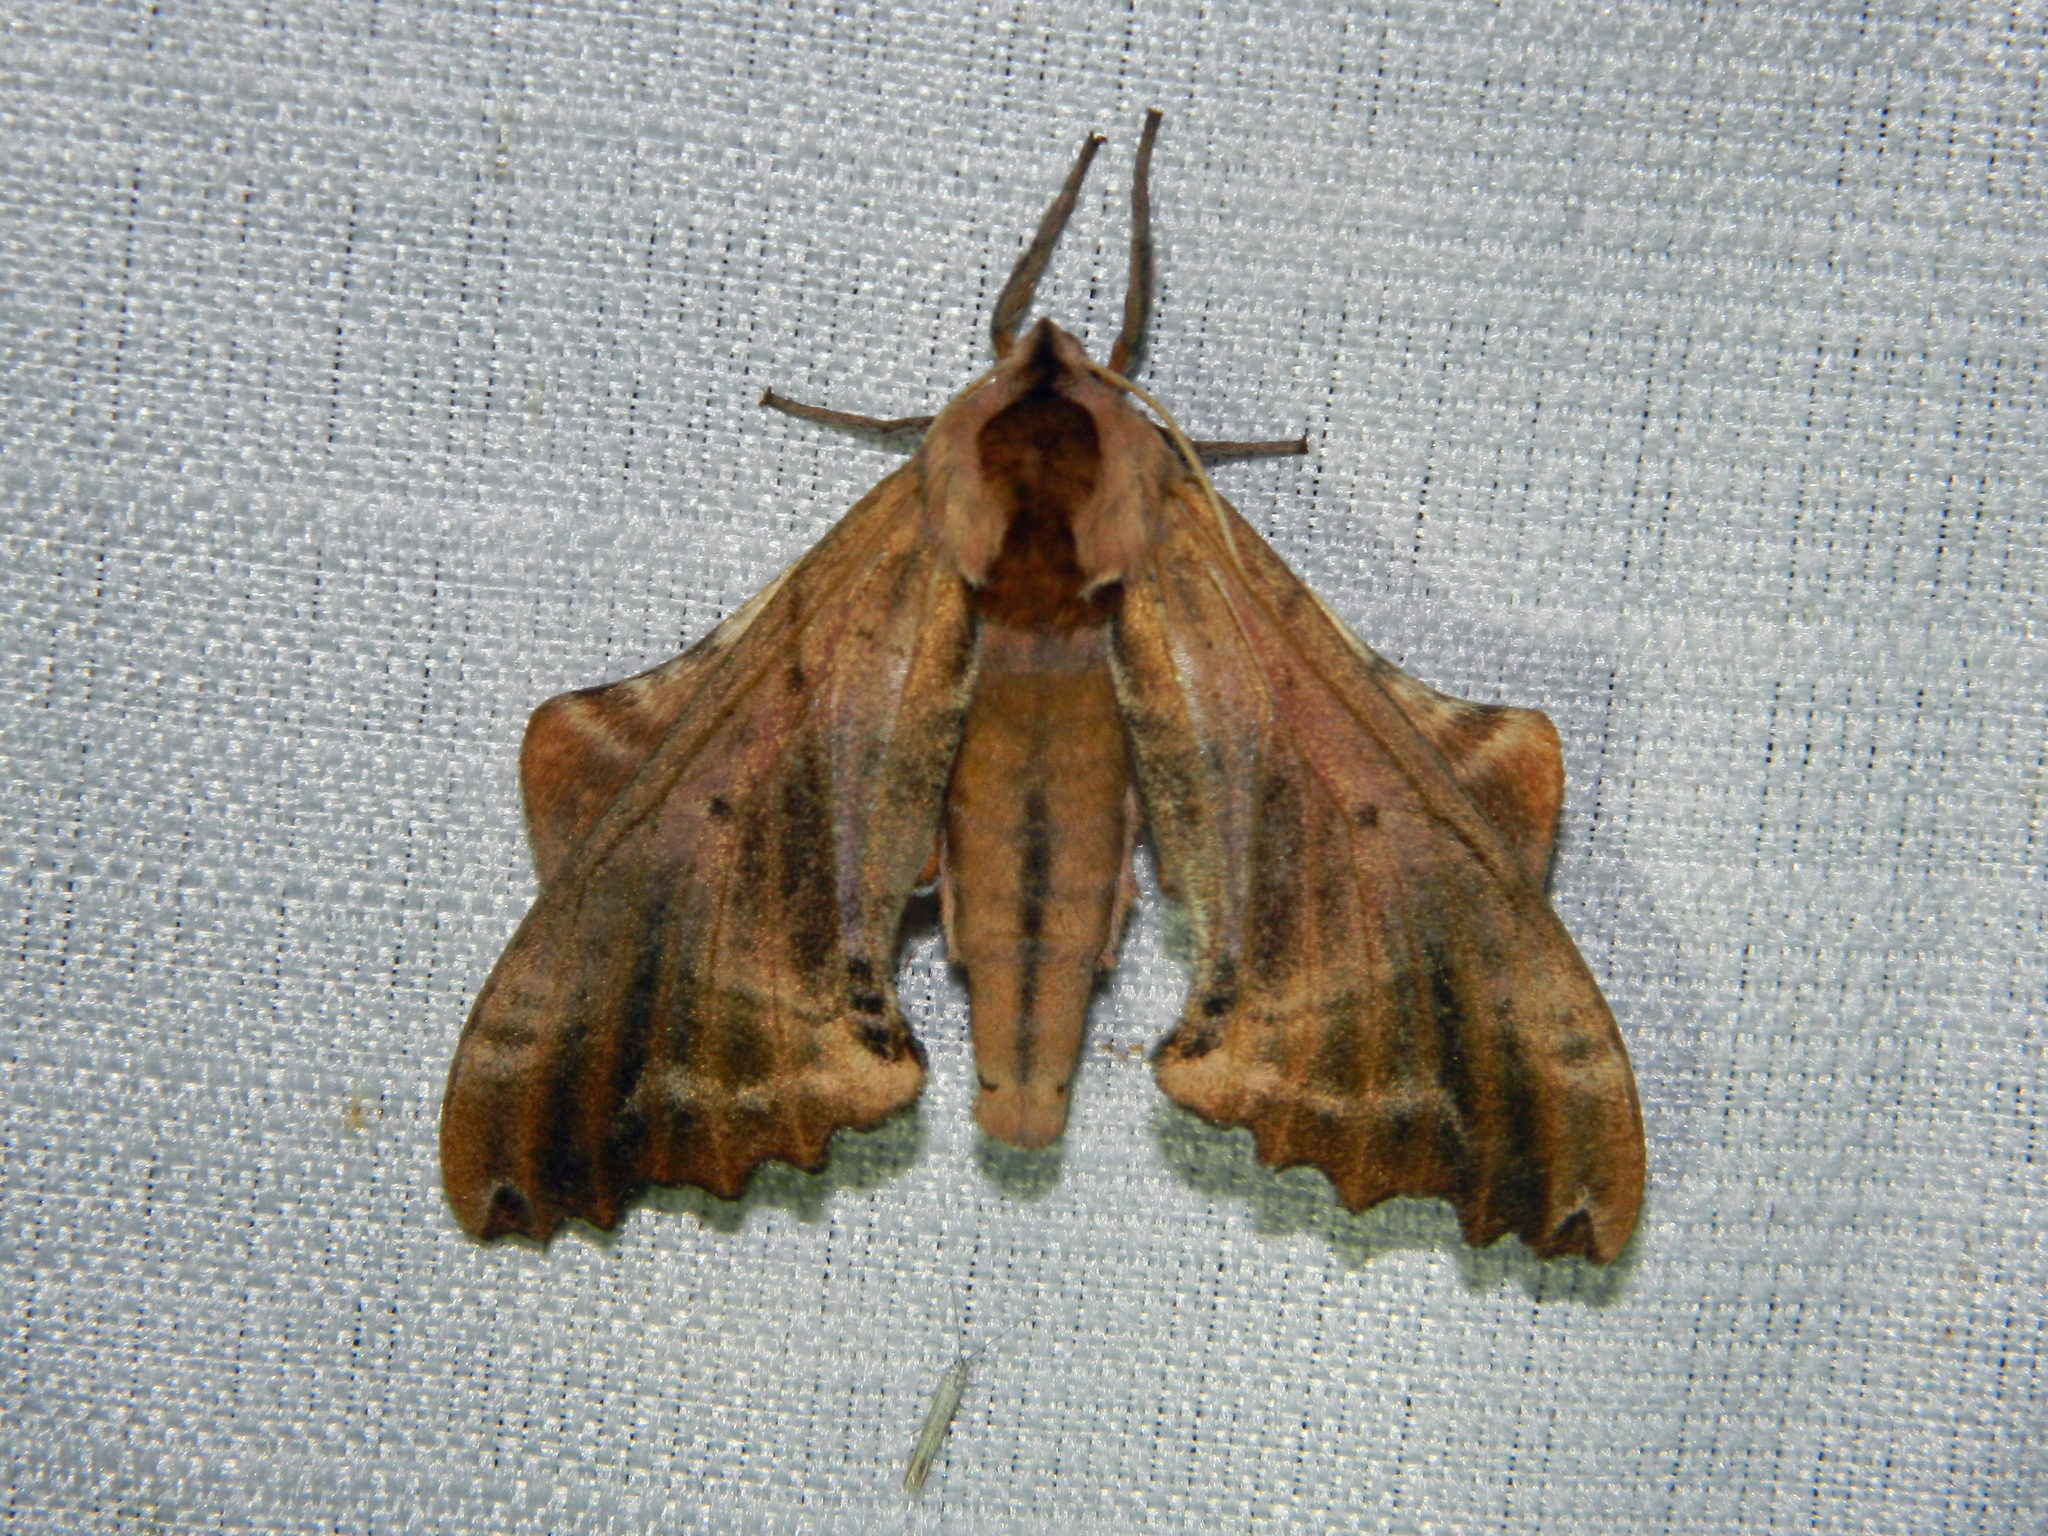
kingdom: Animalia
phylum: Arthropoda
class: Insecta
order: Lepidoptera
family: Sphingidae
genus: Paonias
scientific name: Paonias excaecata
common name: Blind-eyed sphinx
